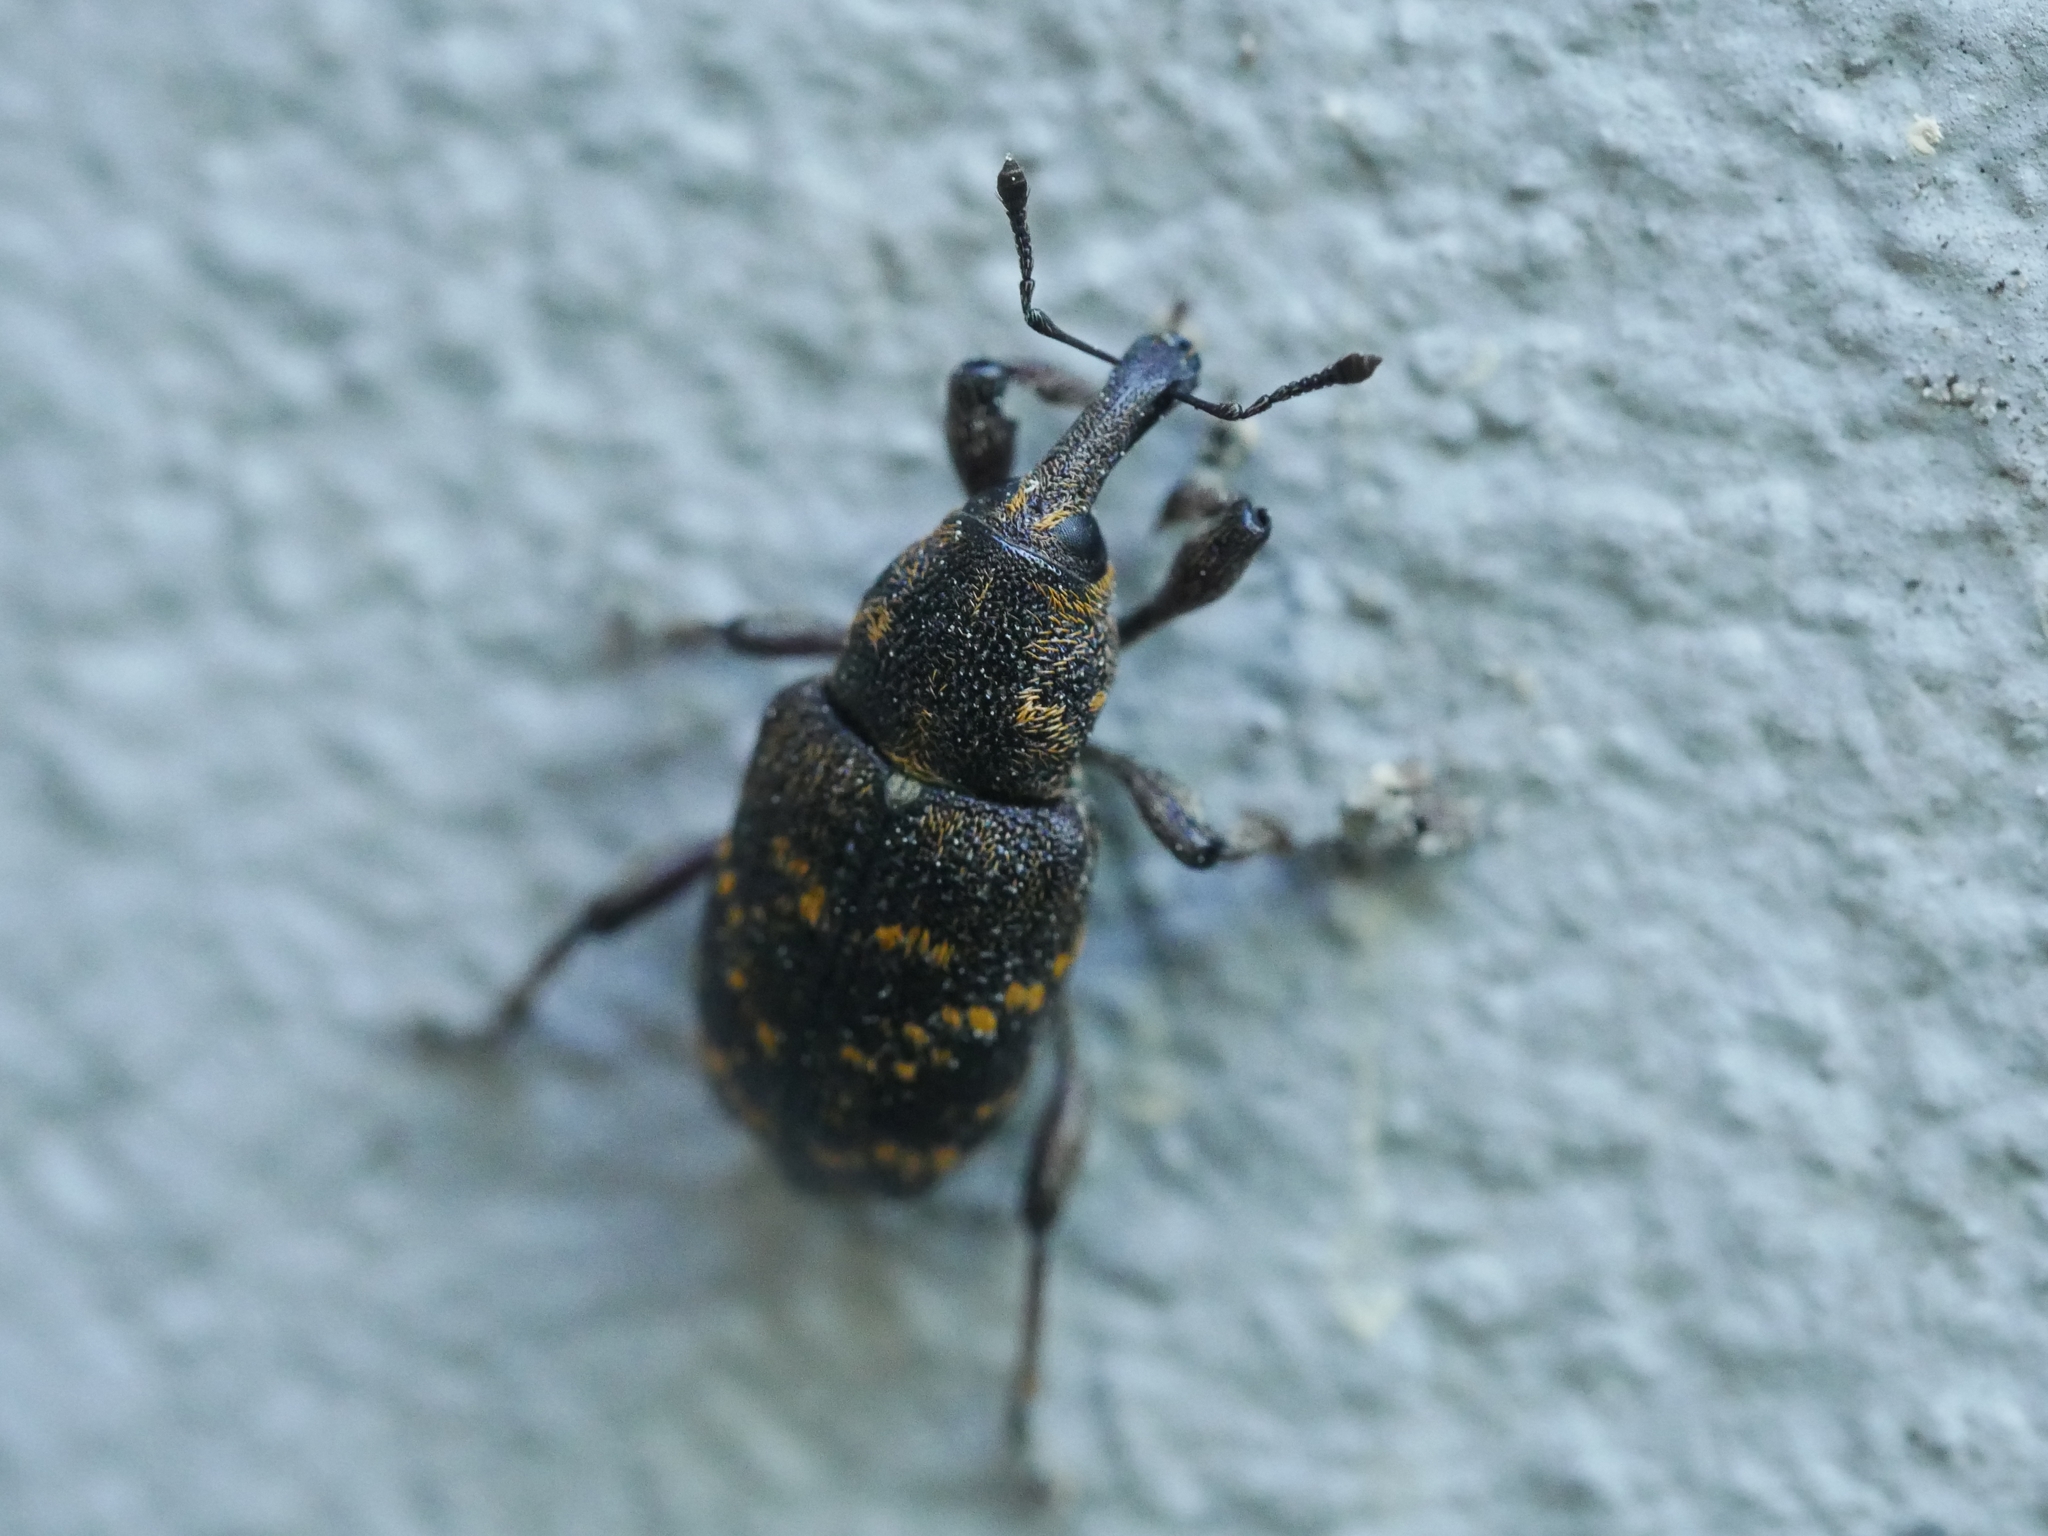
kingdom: Animalia
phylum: Arthropoda
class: Insecta
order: Coleoptera
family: Curculionidae
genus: Hylobius
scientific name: Hylobius abietis
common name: Large pine weevil
